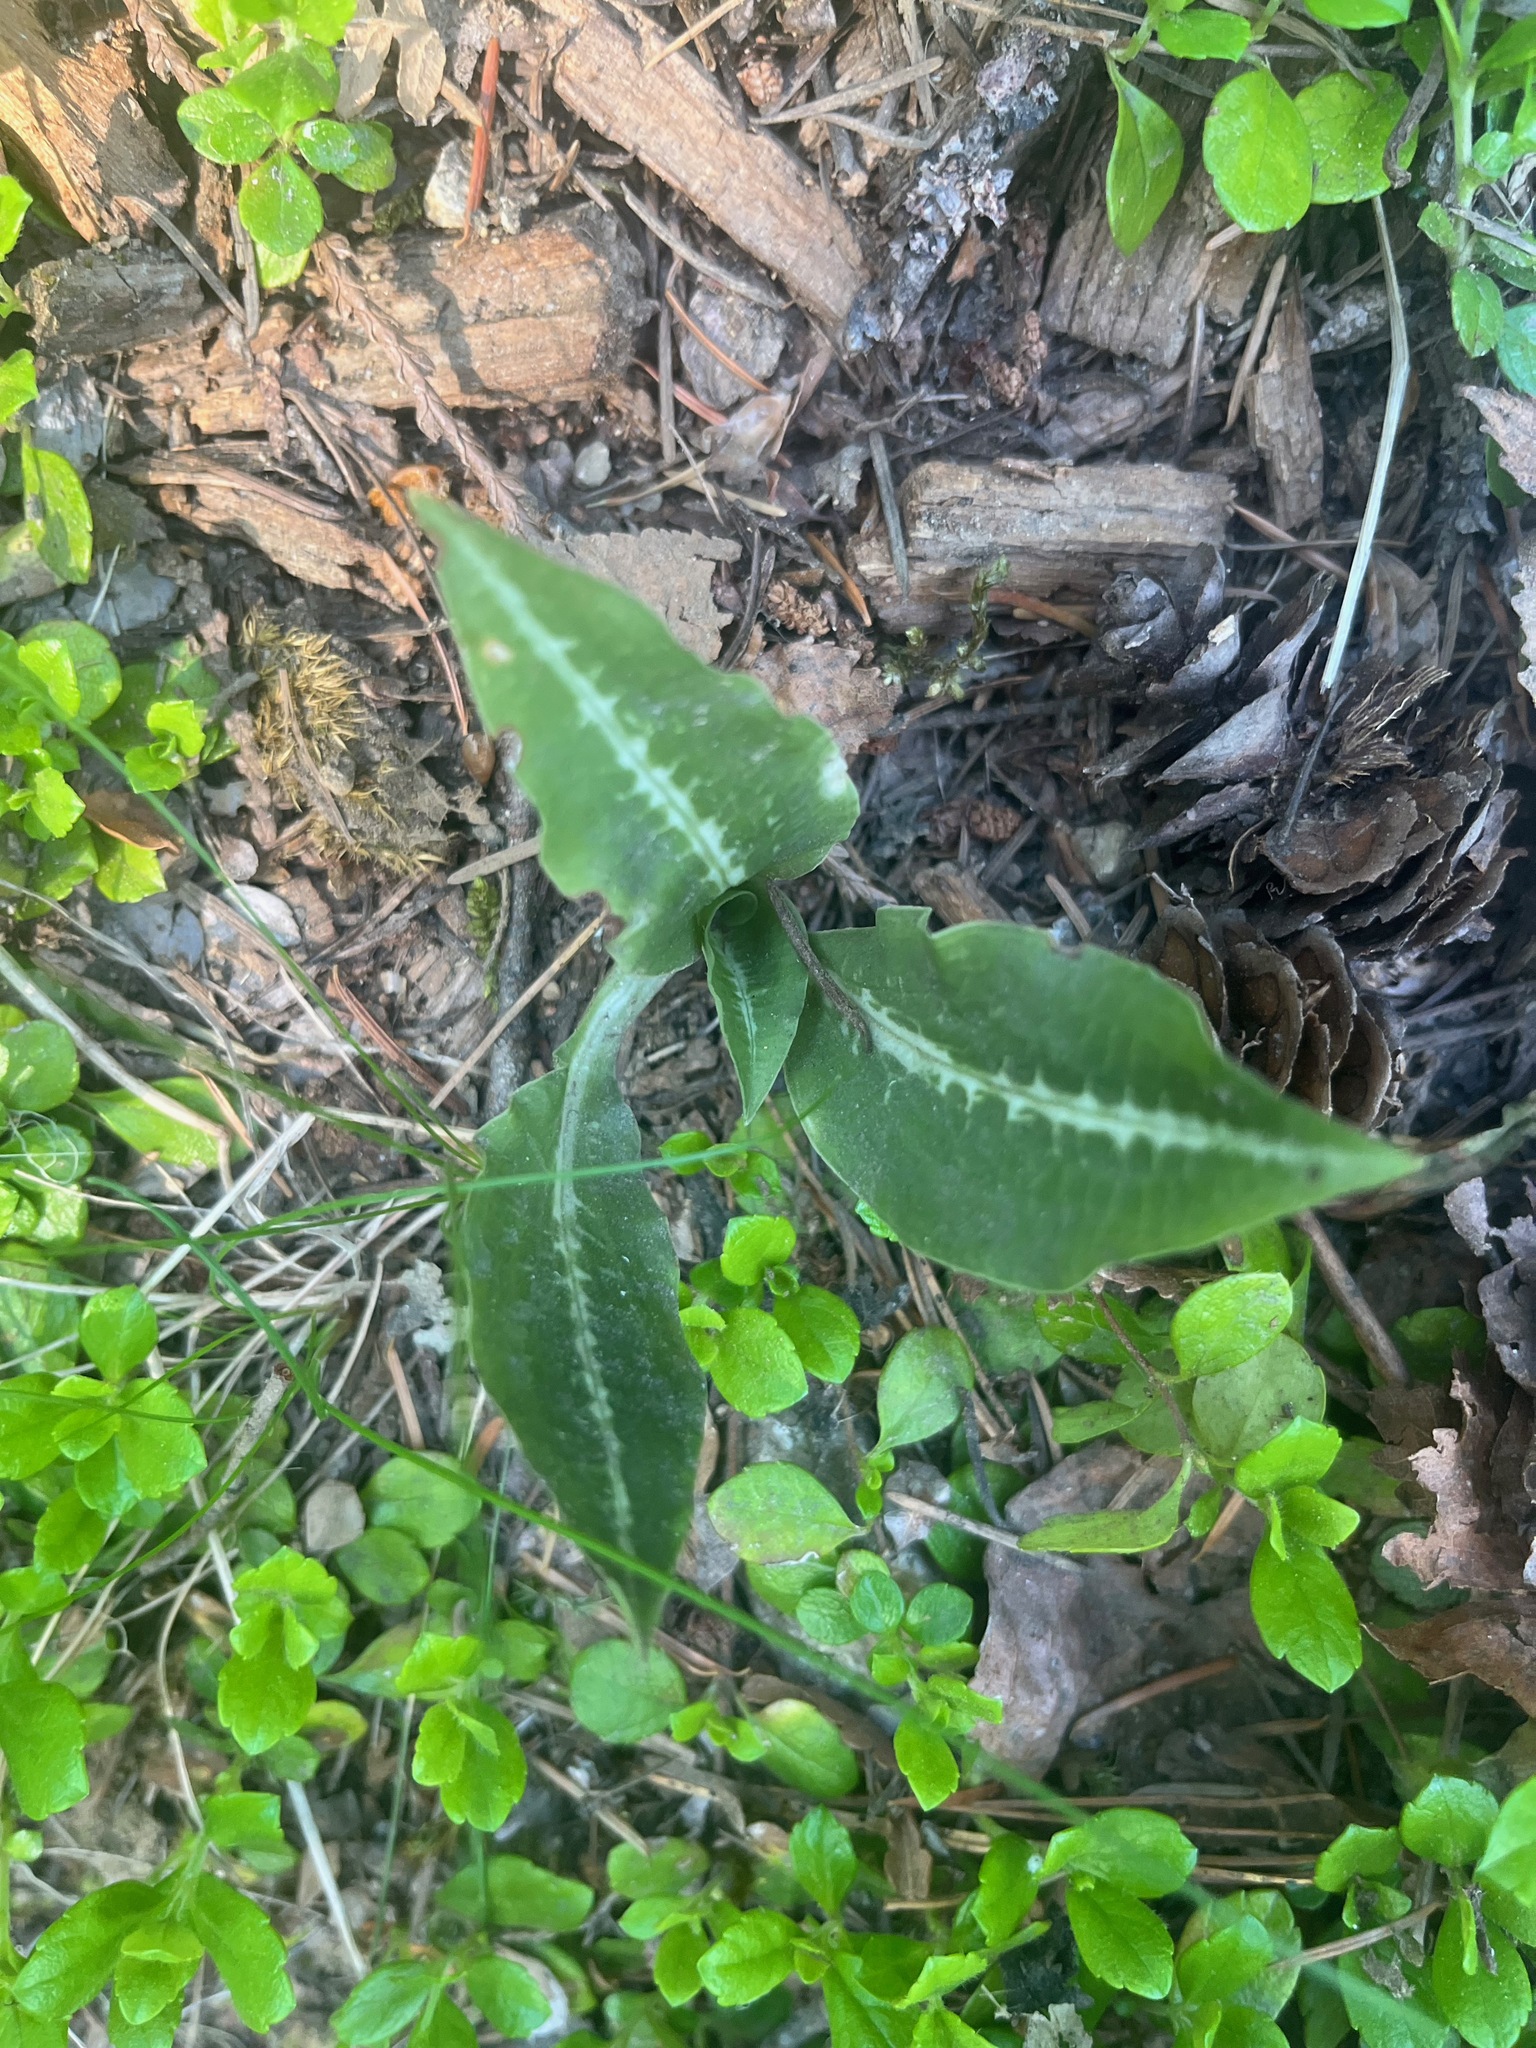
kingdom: Plantae
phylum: Tracheophyta
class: Liliopsida
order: Asparagales
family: Orchidaceae
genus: Goodyera
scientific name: Goodyera oblongifolia
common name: Giant rattlesnake-plantain
